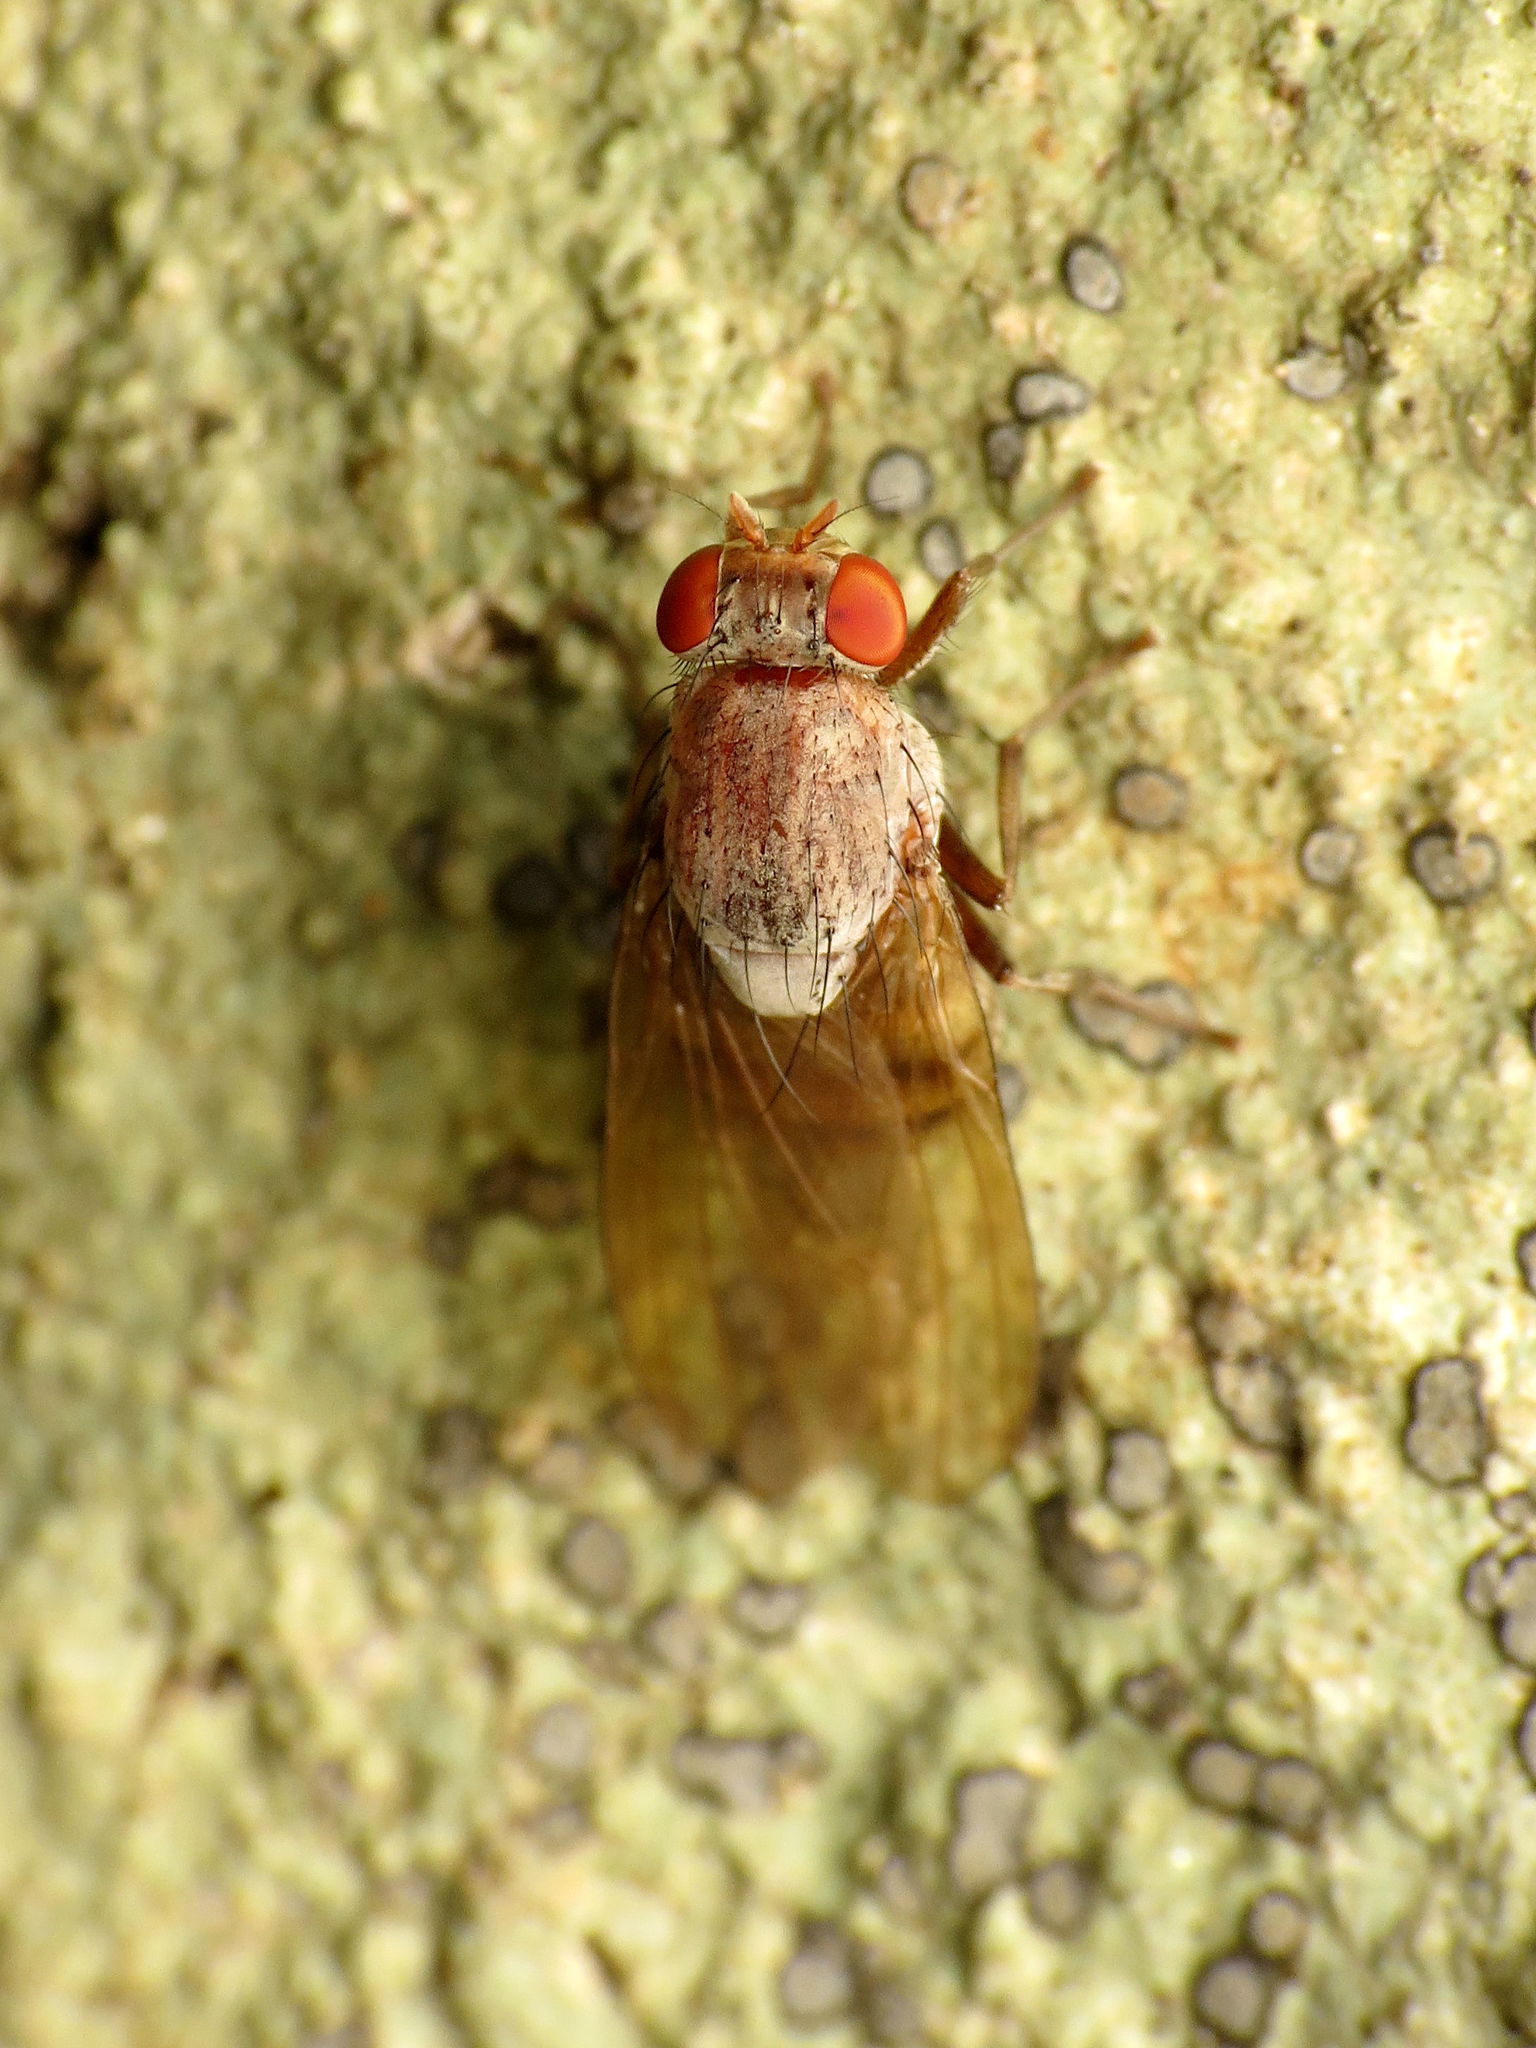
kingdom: Animalia
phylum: Arthropoda
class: Insecta
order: Diptera
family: Lauxaniidae
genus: Minettia
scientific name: Minettia magna
